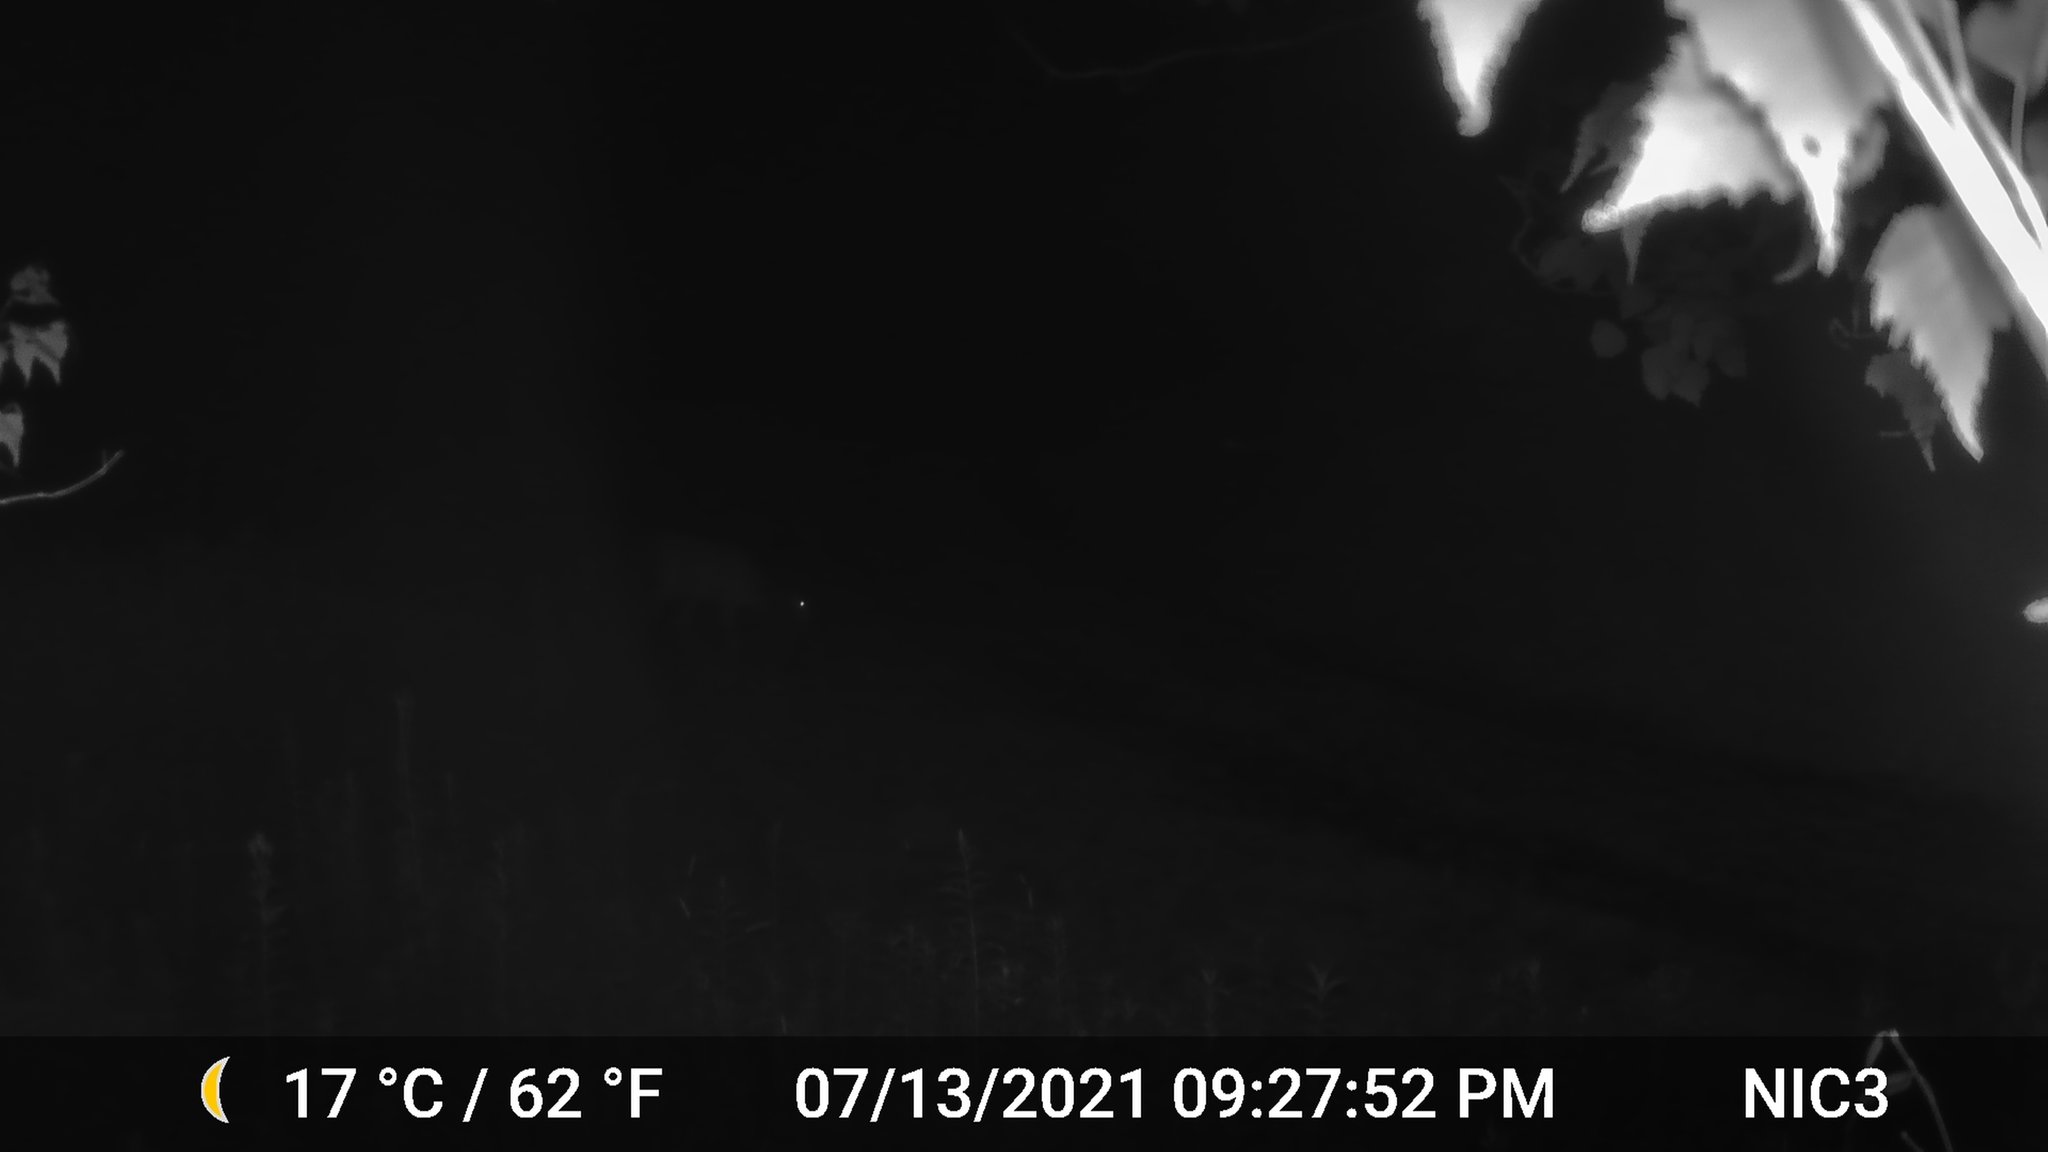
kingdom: Animalia
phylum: Chordata
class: Mammalia
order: Artiodactyla
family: Cervidae
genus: Odocoileus
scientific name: Odocoileus virginianus
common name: White-tailed deer
